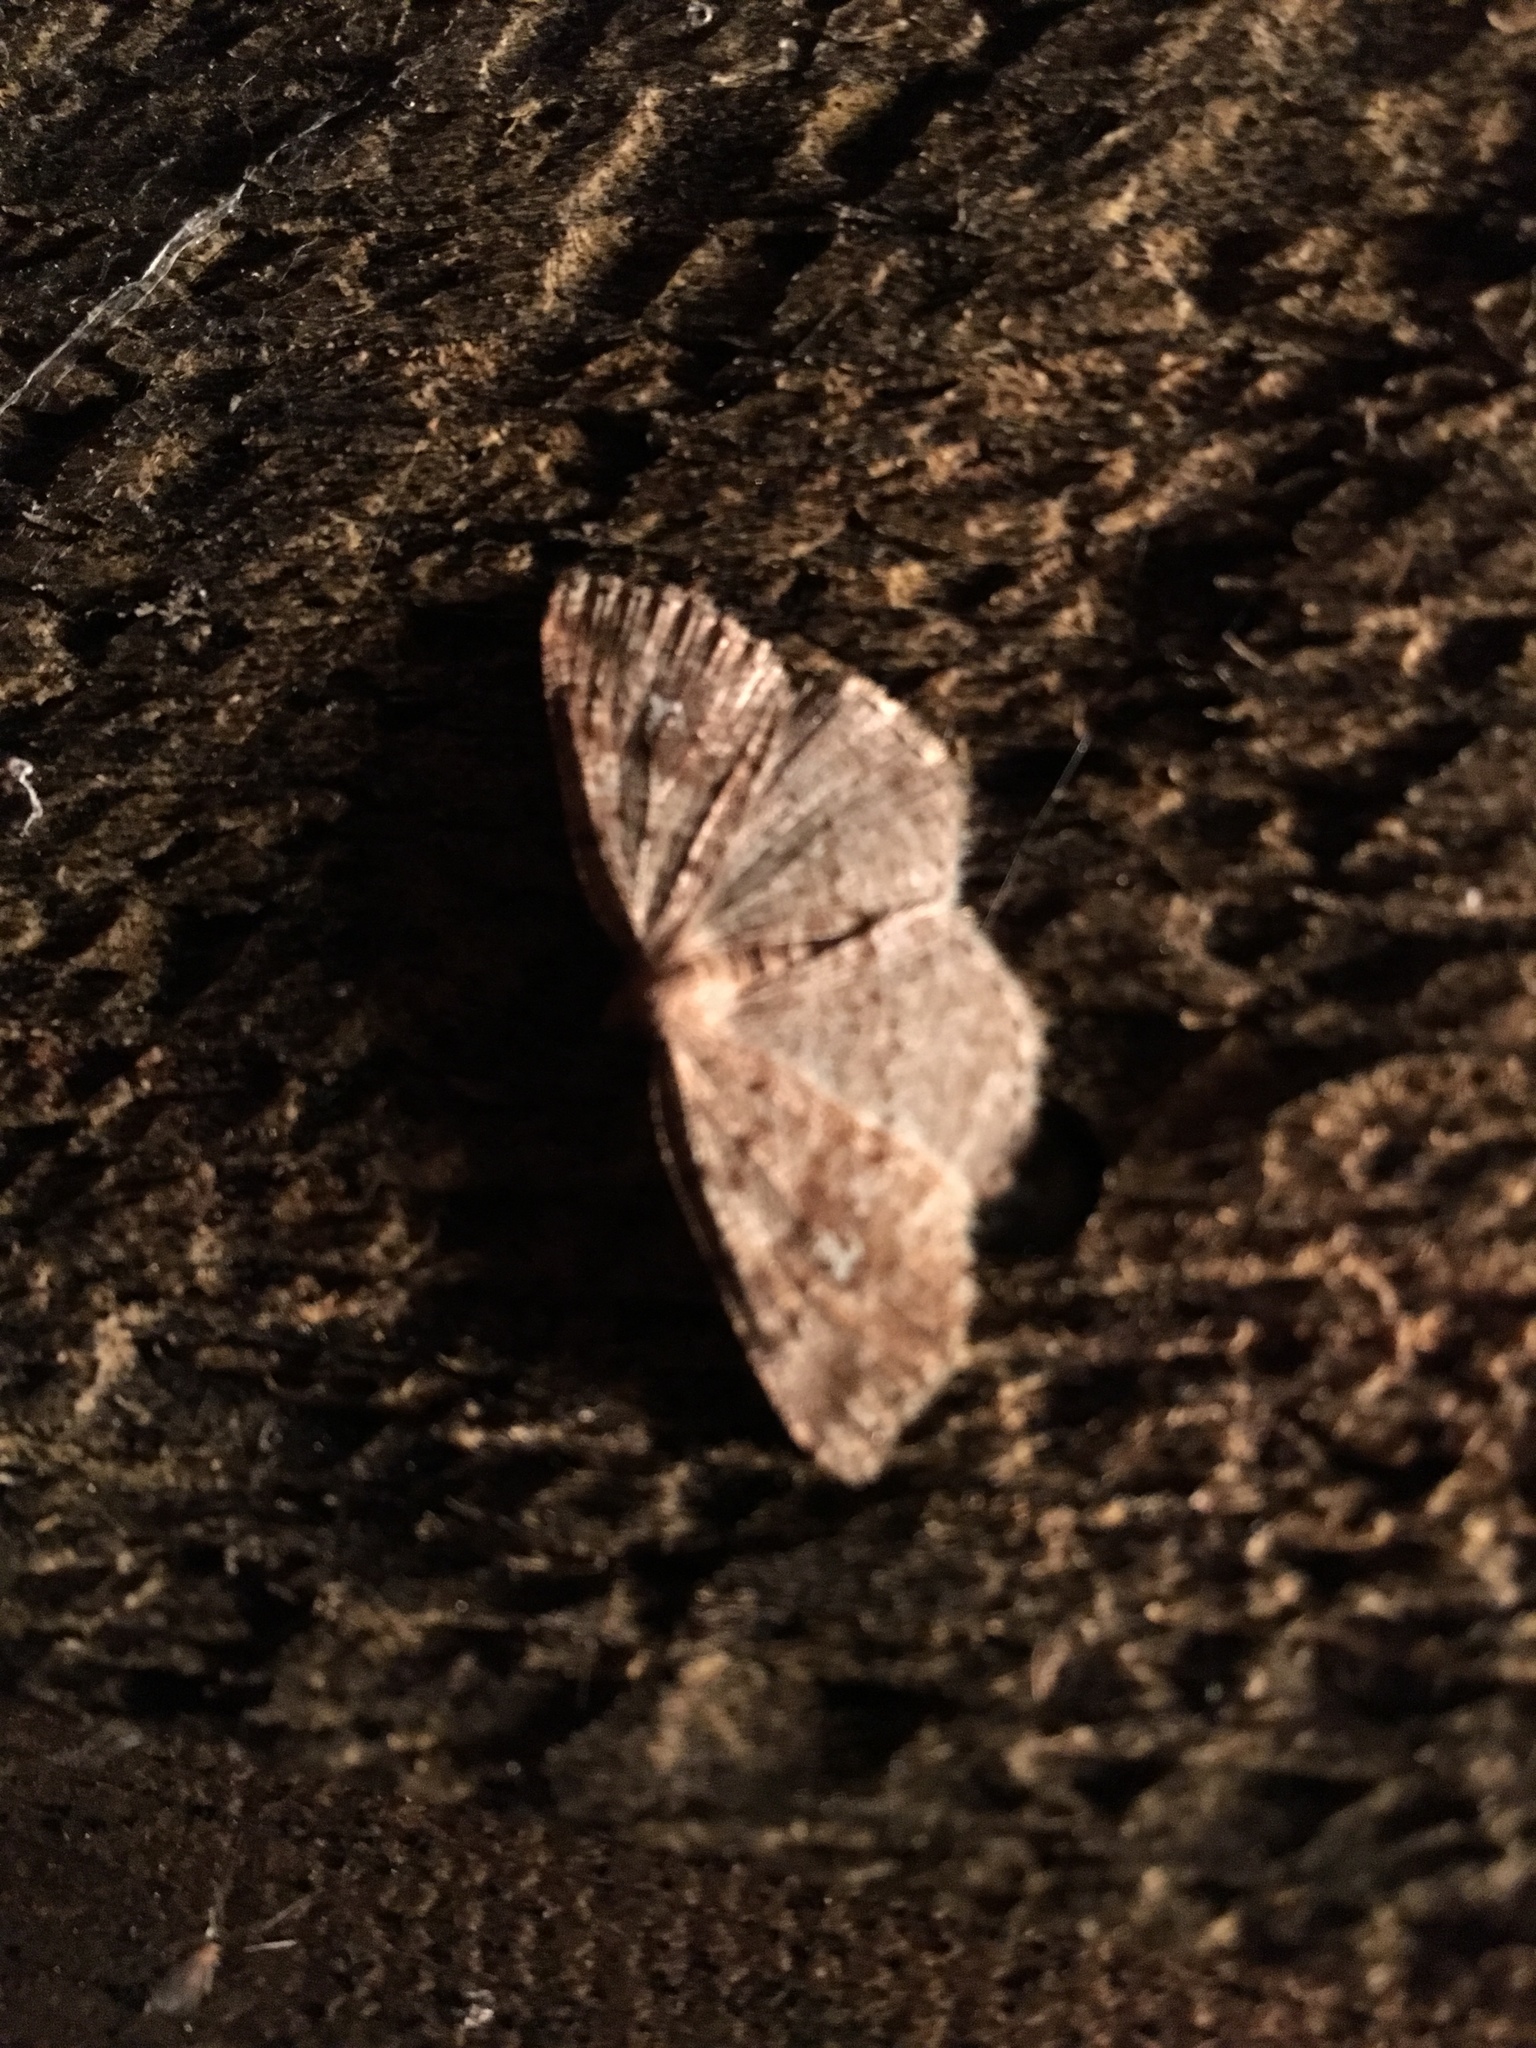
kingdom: Animalia
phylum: Arthropoda
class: Insecta
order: Lepidoptera
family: Geometridae
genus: Homochlodes
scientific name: Homochlodes fritillaria
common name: Pale homochlodes
